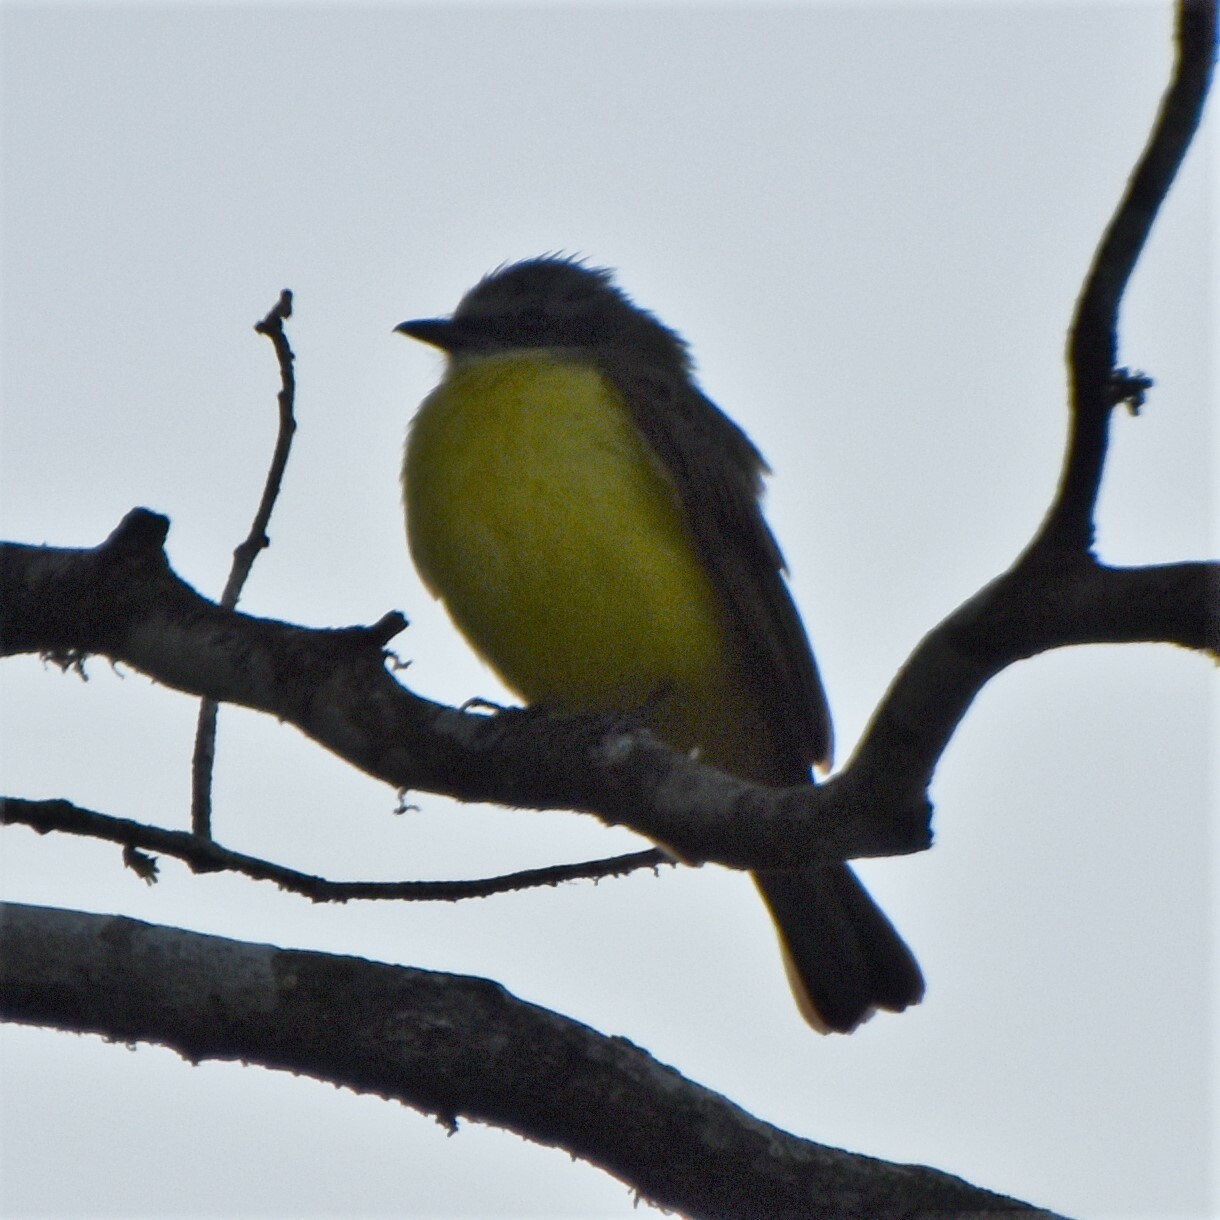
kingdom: Animalia
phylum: Chordata
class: Aves
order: Passeriformes
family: Tyrannidae
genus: Myiozetetes
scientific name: Myiozetetes granadensis
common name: Gray-capped flycatcher
